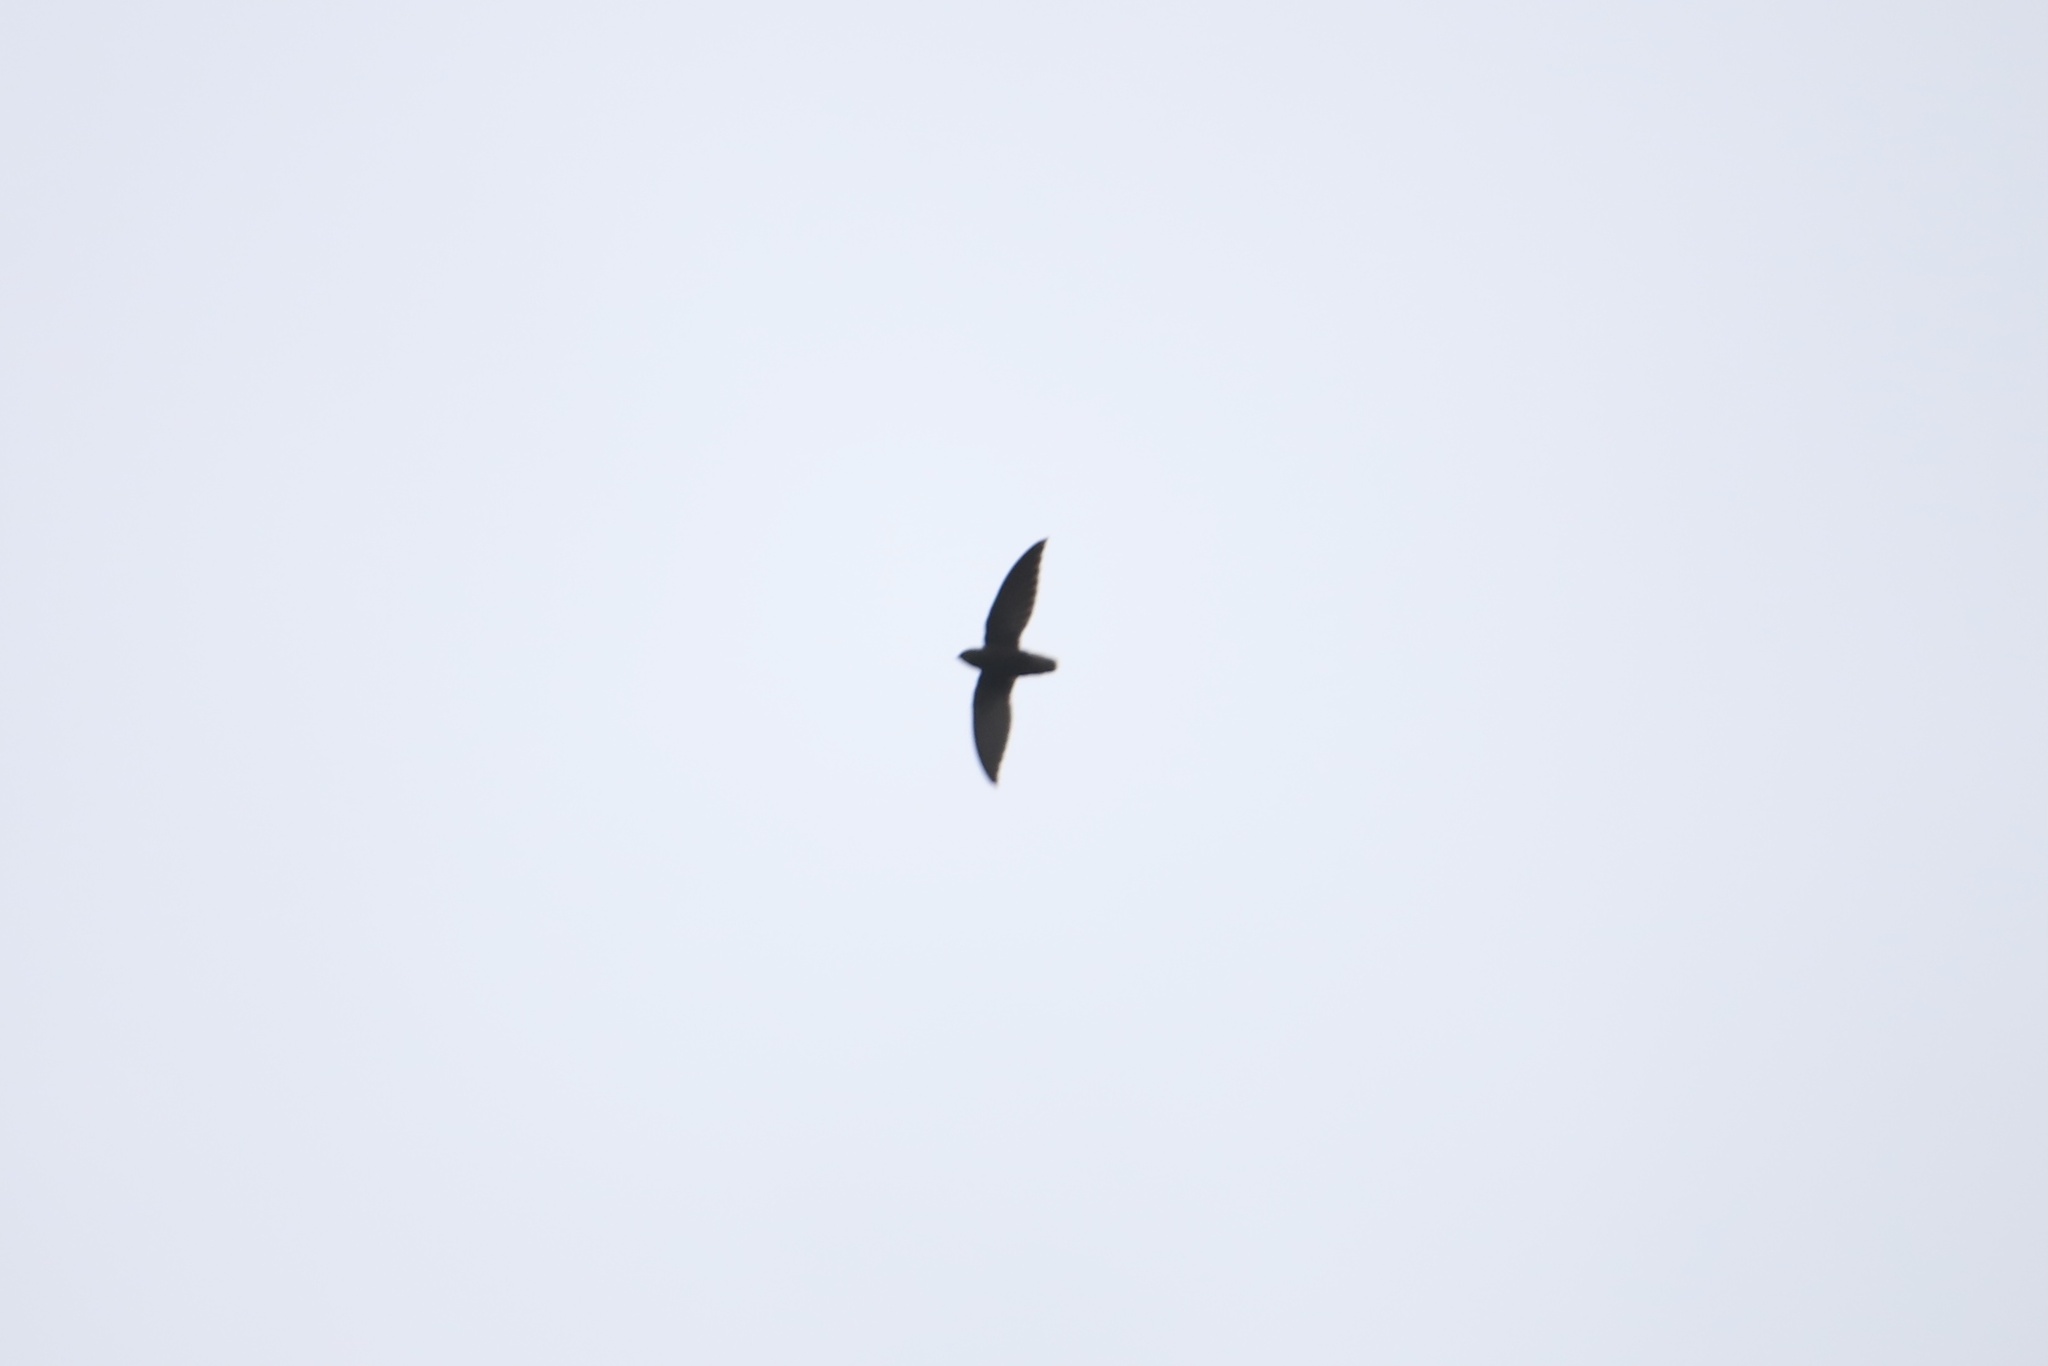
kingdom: Animalia
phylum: Chordata
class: Aves
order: Apodiformes
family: Apodidae
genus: Chaetura
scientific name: Chaetura brachyura
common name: Short-tailed swift
